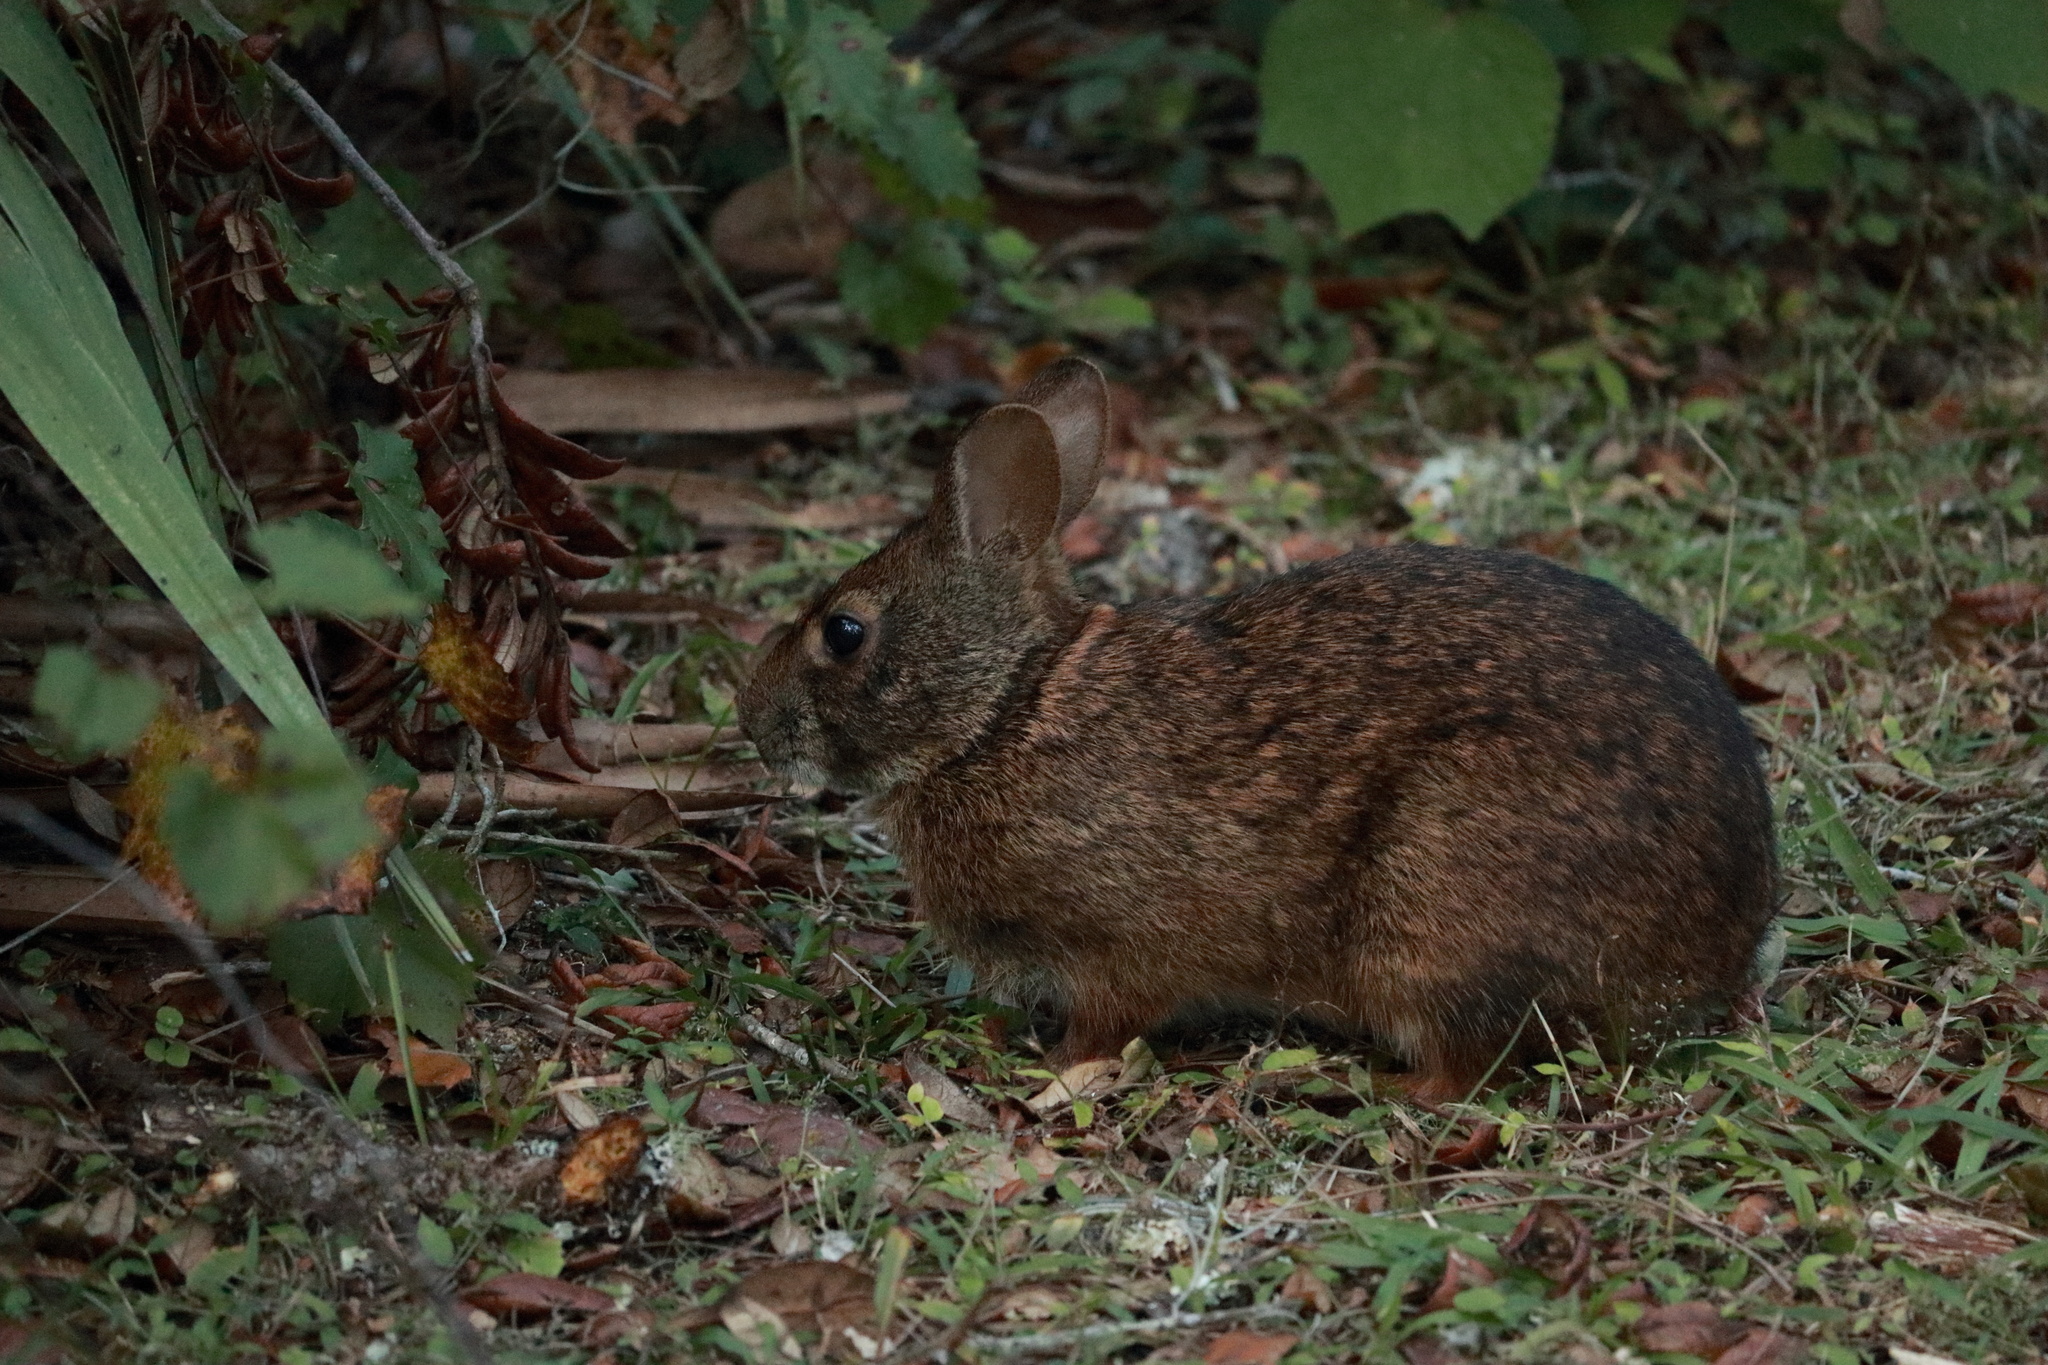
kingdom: Animalia
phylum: Chordata
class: Mammalia
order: Lagomorpha
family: Leporidae
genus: Sylvilagus
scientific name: Sylvilagus palustris
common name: Marsh rabbit
